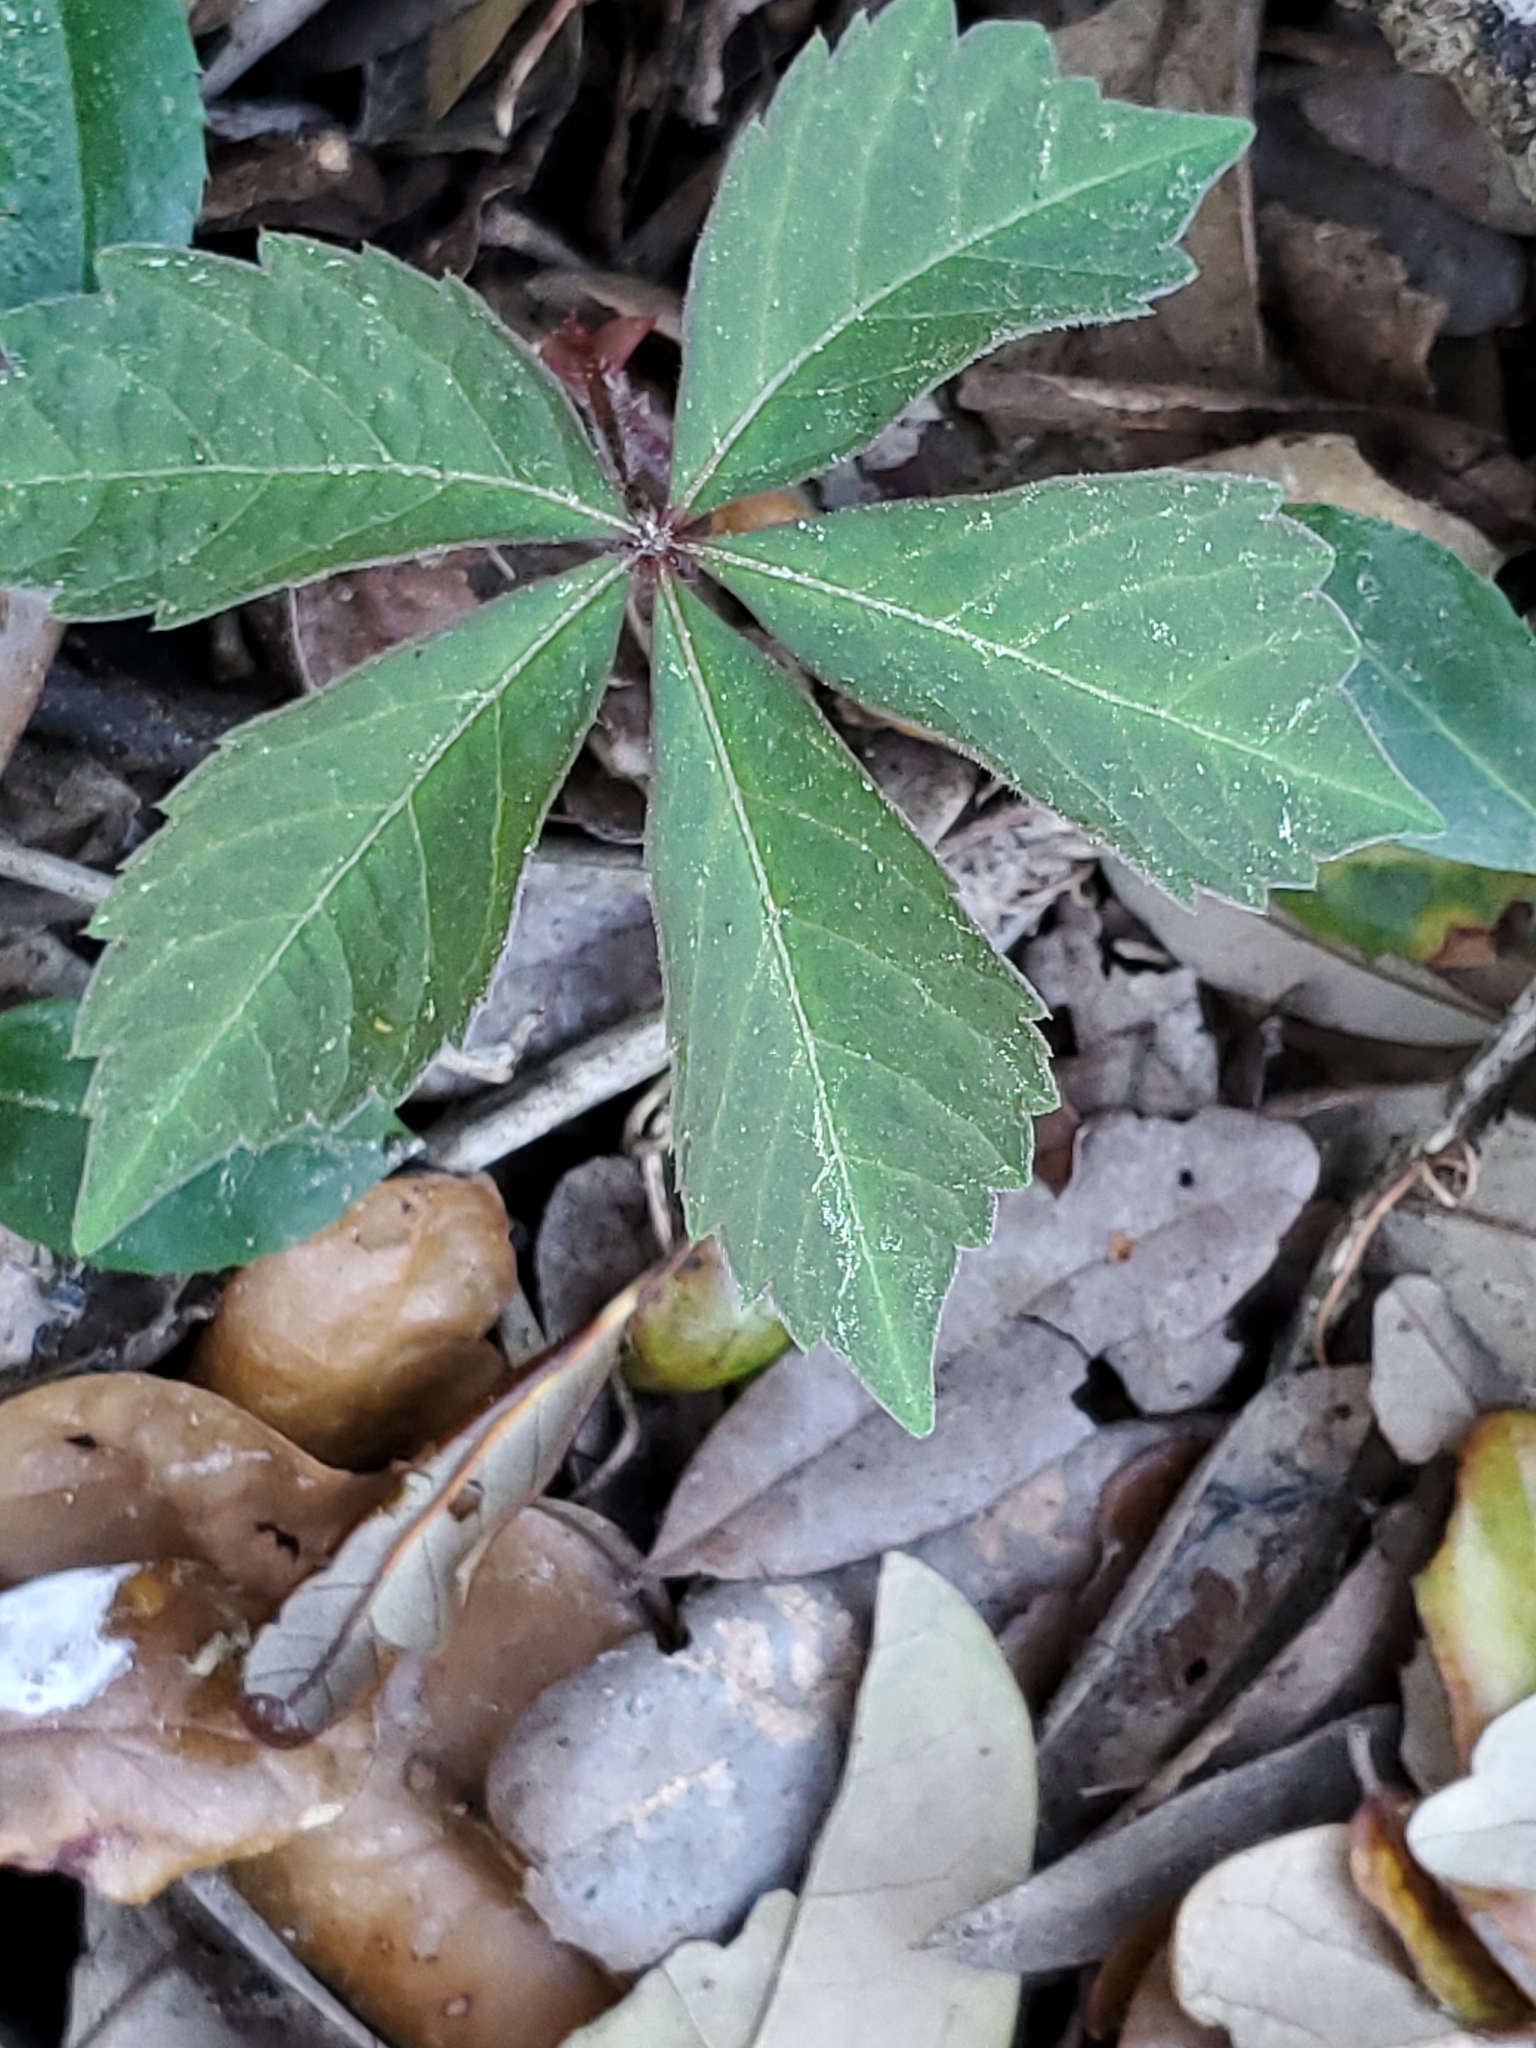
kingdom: Plantae
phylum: Tracheophyta
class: Magnoliopsida
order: Vitales
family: Vitaceae
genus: Parthenocissus
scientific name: Parthenocissus quinquefolia
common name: Virginia-creeper
